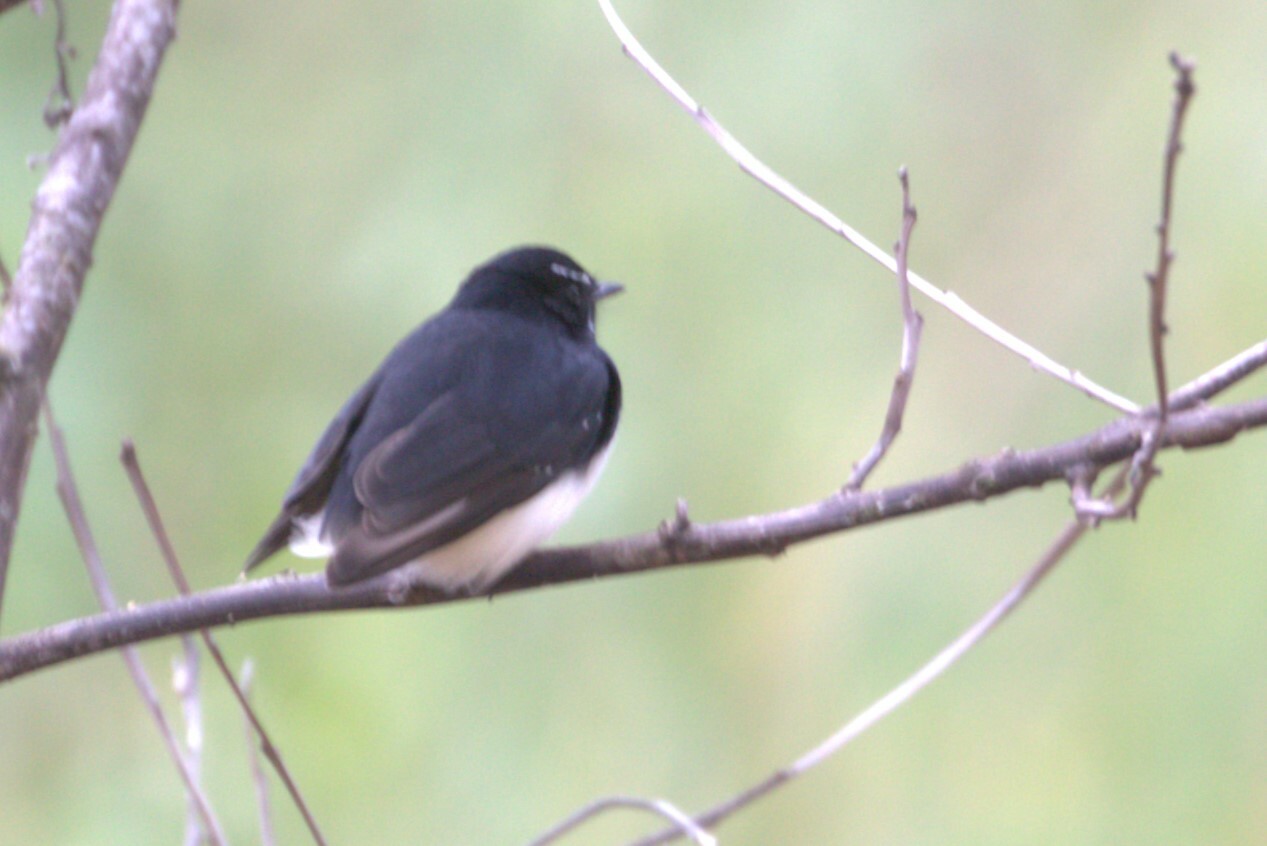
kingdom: Animalia
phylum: Chordata
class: Aves
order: Passeriformes
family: Rhipiduridae
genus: Rhipidura
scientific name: Rhipidura leucophrys
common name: Willie wagtail
